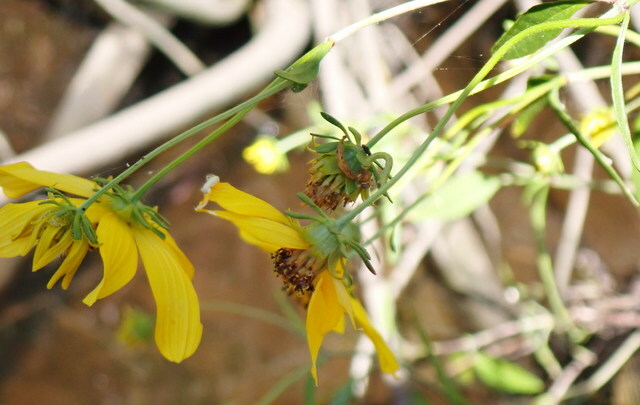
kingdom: Plantae
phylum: Tracheophyta
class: Magnoliopsida
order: Asterales
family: Asteraceae
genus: Bidens
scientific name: Bidens mitis
